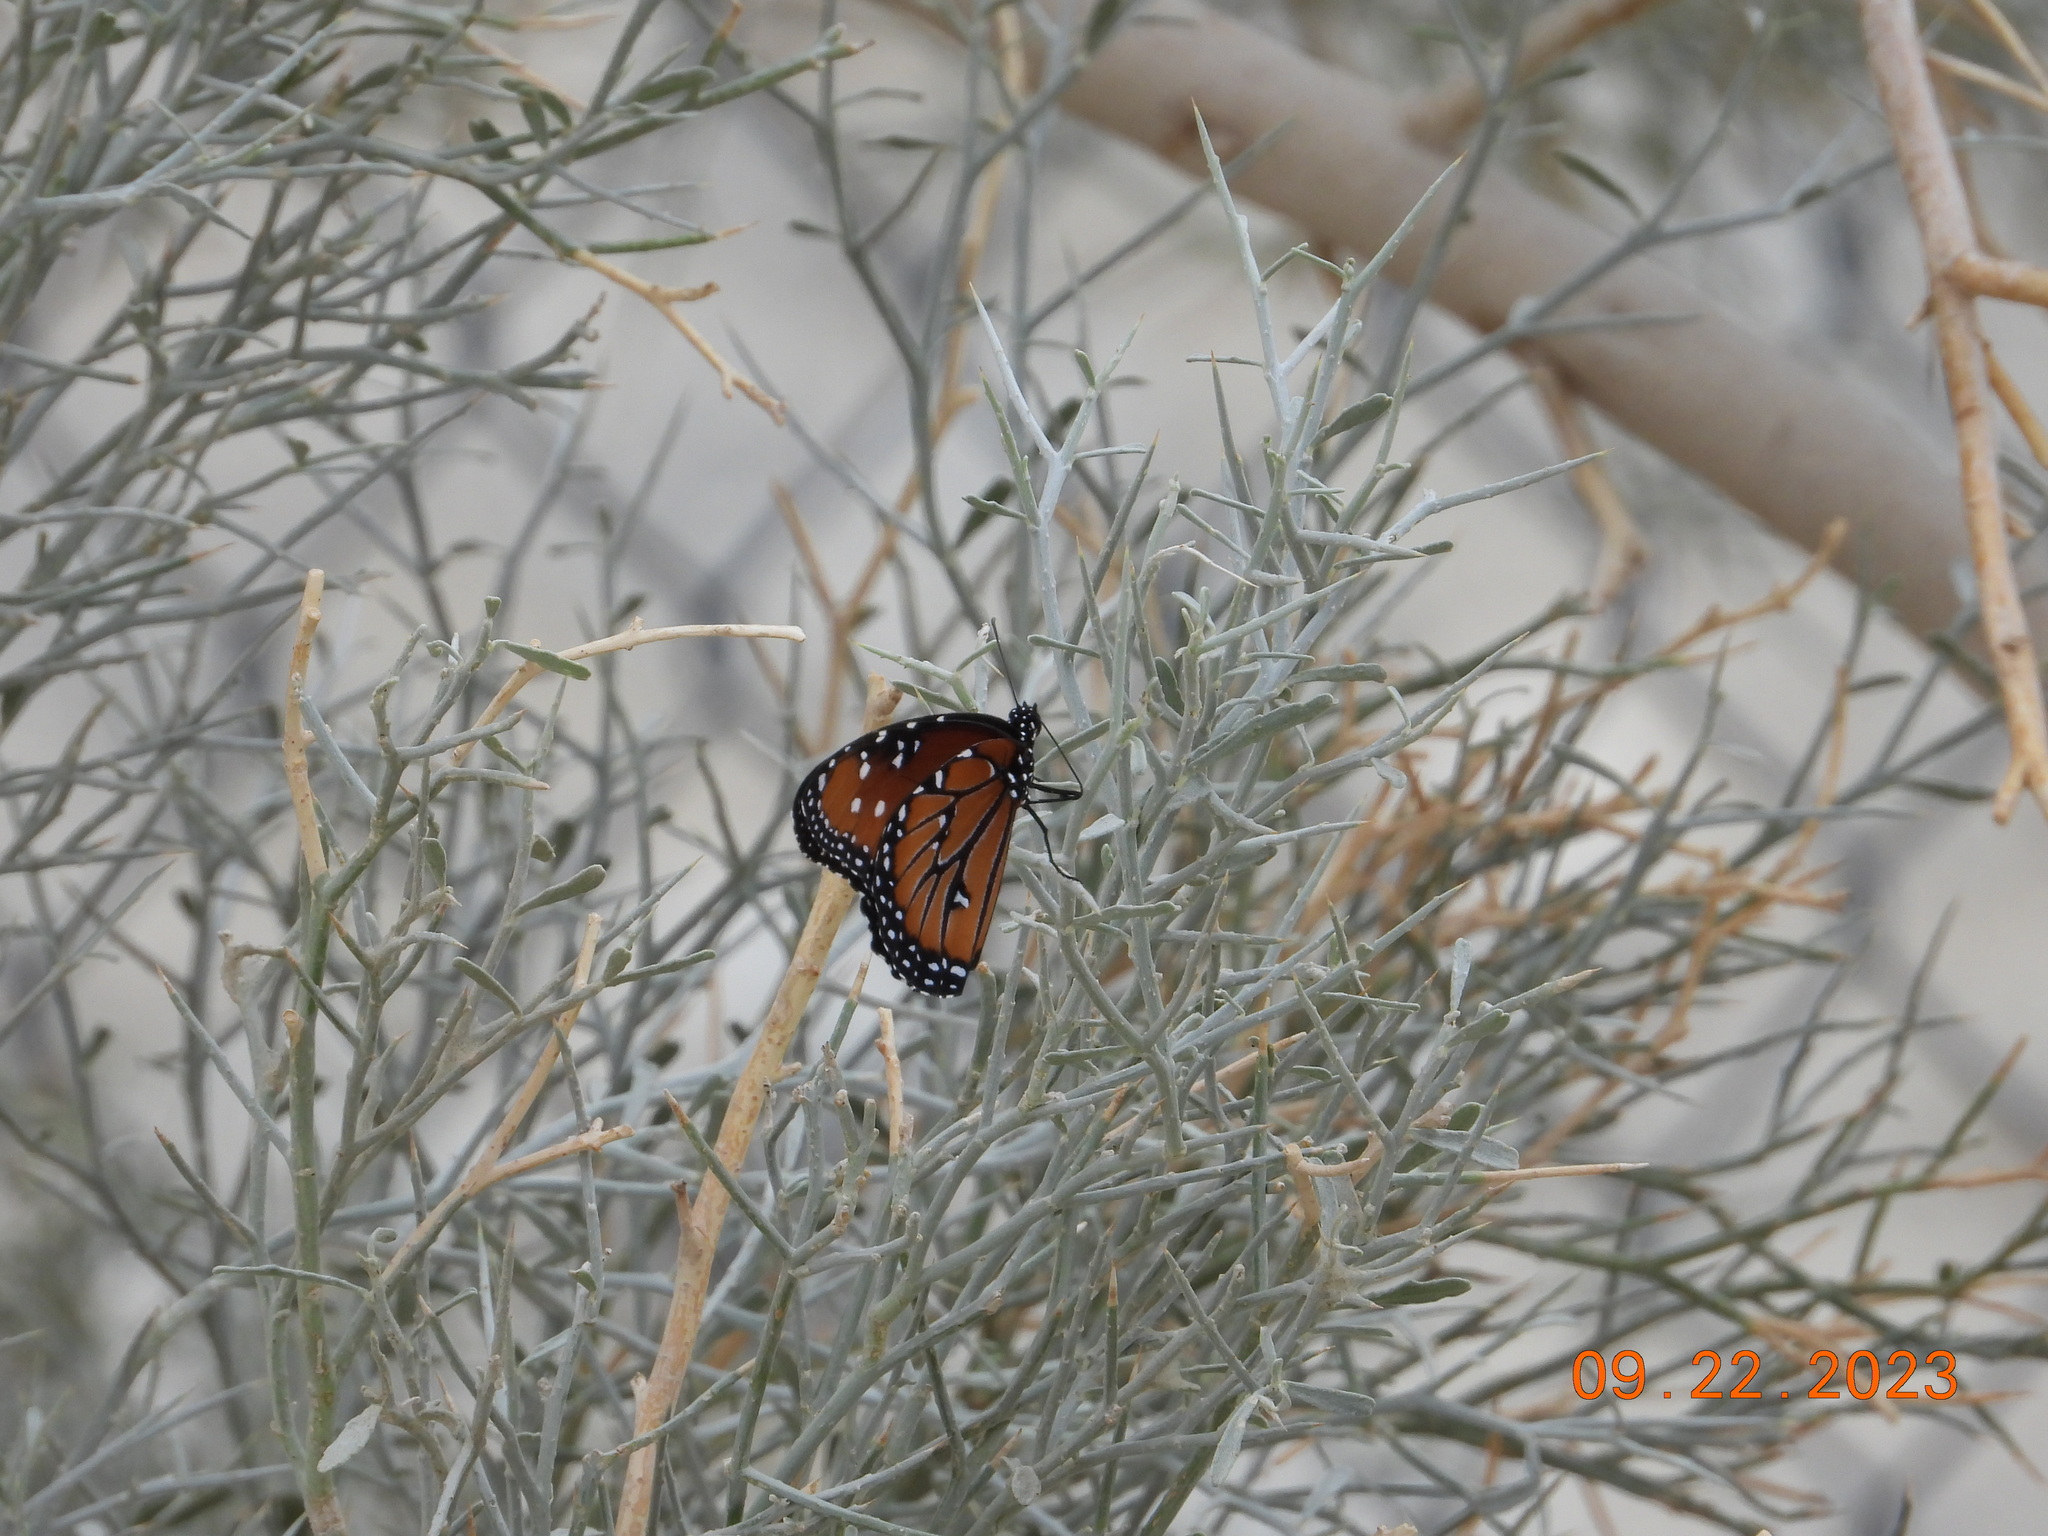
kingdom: Animalia
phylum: Arthropoda
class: Insecta
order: Lepidoptera
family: Nymphalidae
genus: Danaus
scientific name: Danaus gilippus
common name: Queen
